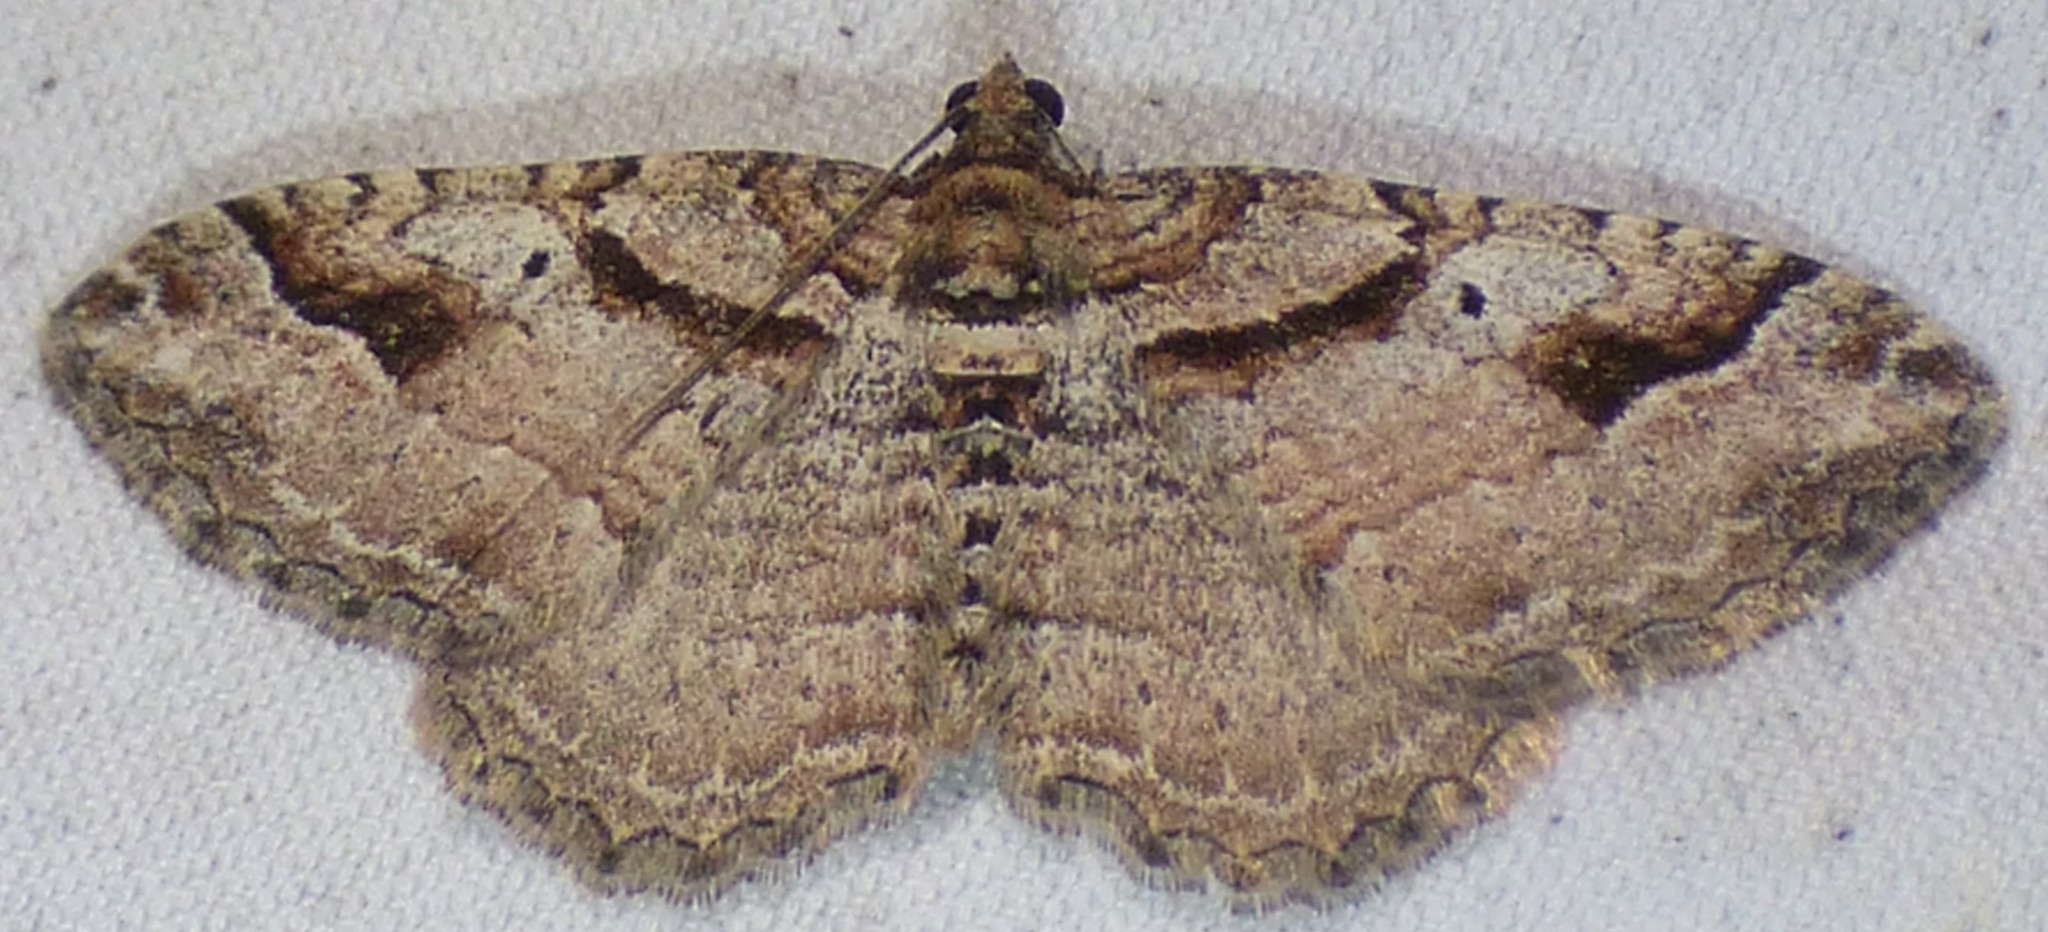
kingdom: Animalia
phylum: Arthropoda
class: Insecta
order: Lepidoptera
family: Geometridae
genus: Costaconvexa
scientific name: Costaconvexa centrostrigaria
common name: Bent-line carpet
